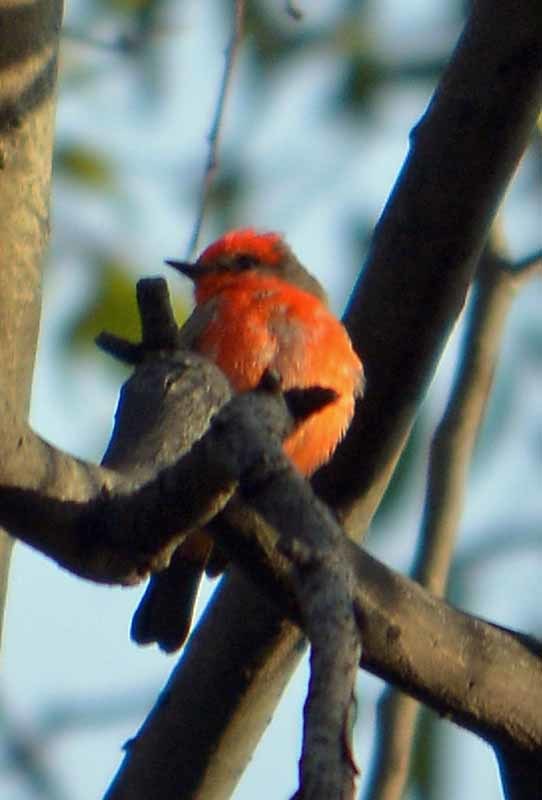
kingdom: Animalia
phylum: Chordata
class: Aves
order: Passeriformes
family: Tyrannidae
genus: Pyrocephalus
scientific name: Pyrocephalus rubinus
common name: Vermilion flycatcher
